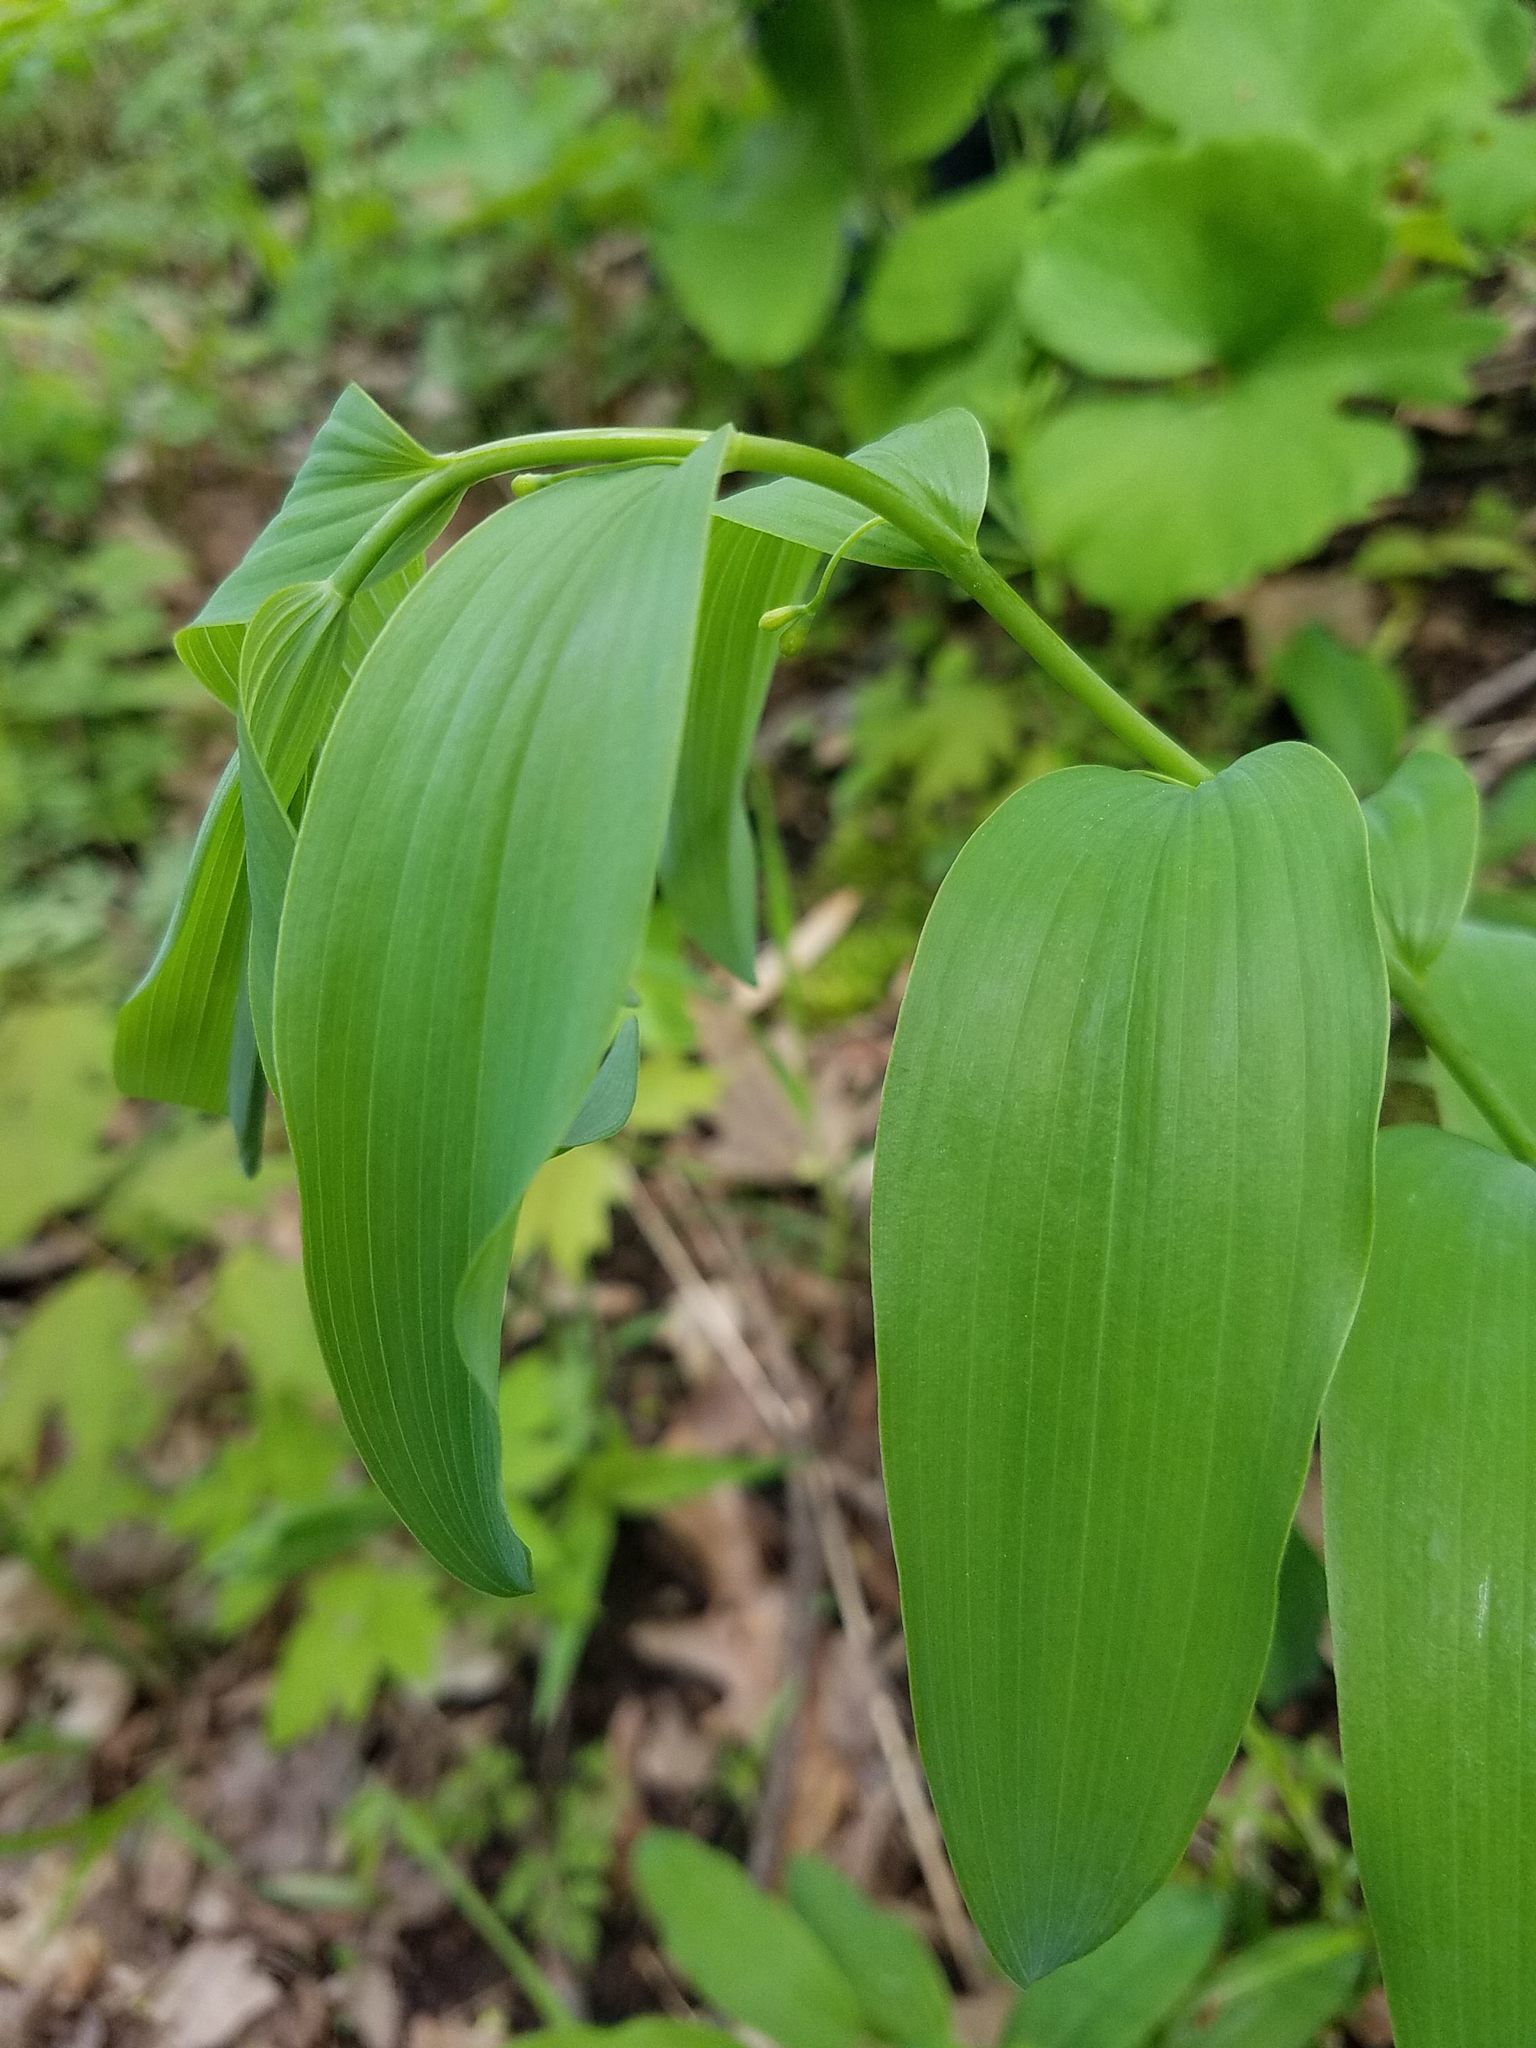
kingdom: Plantae
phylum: Tracheophyta
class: Liliopsida
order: Asparagales
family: Asparagaceae
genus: Polygonatum
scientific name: Polygonatum biflorum
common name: American solomon's-seal
